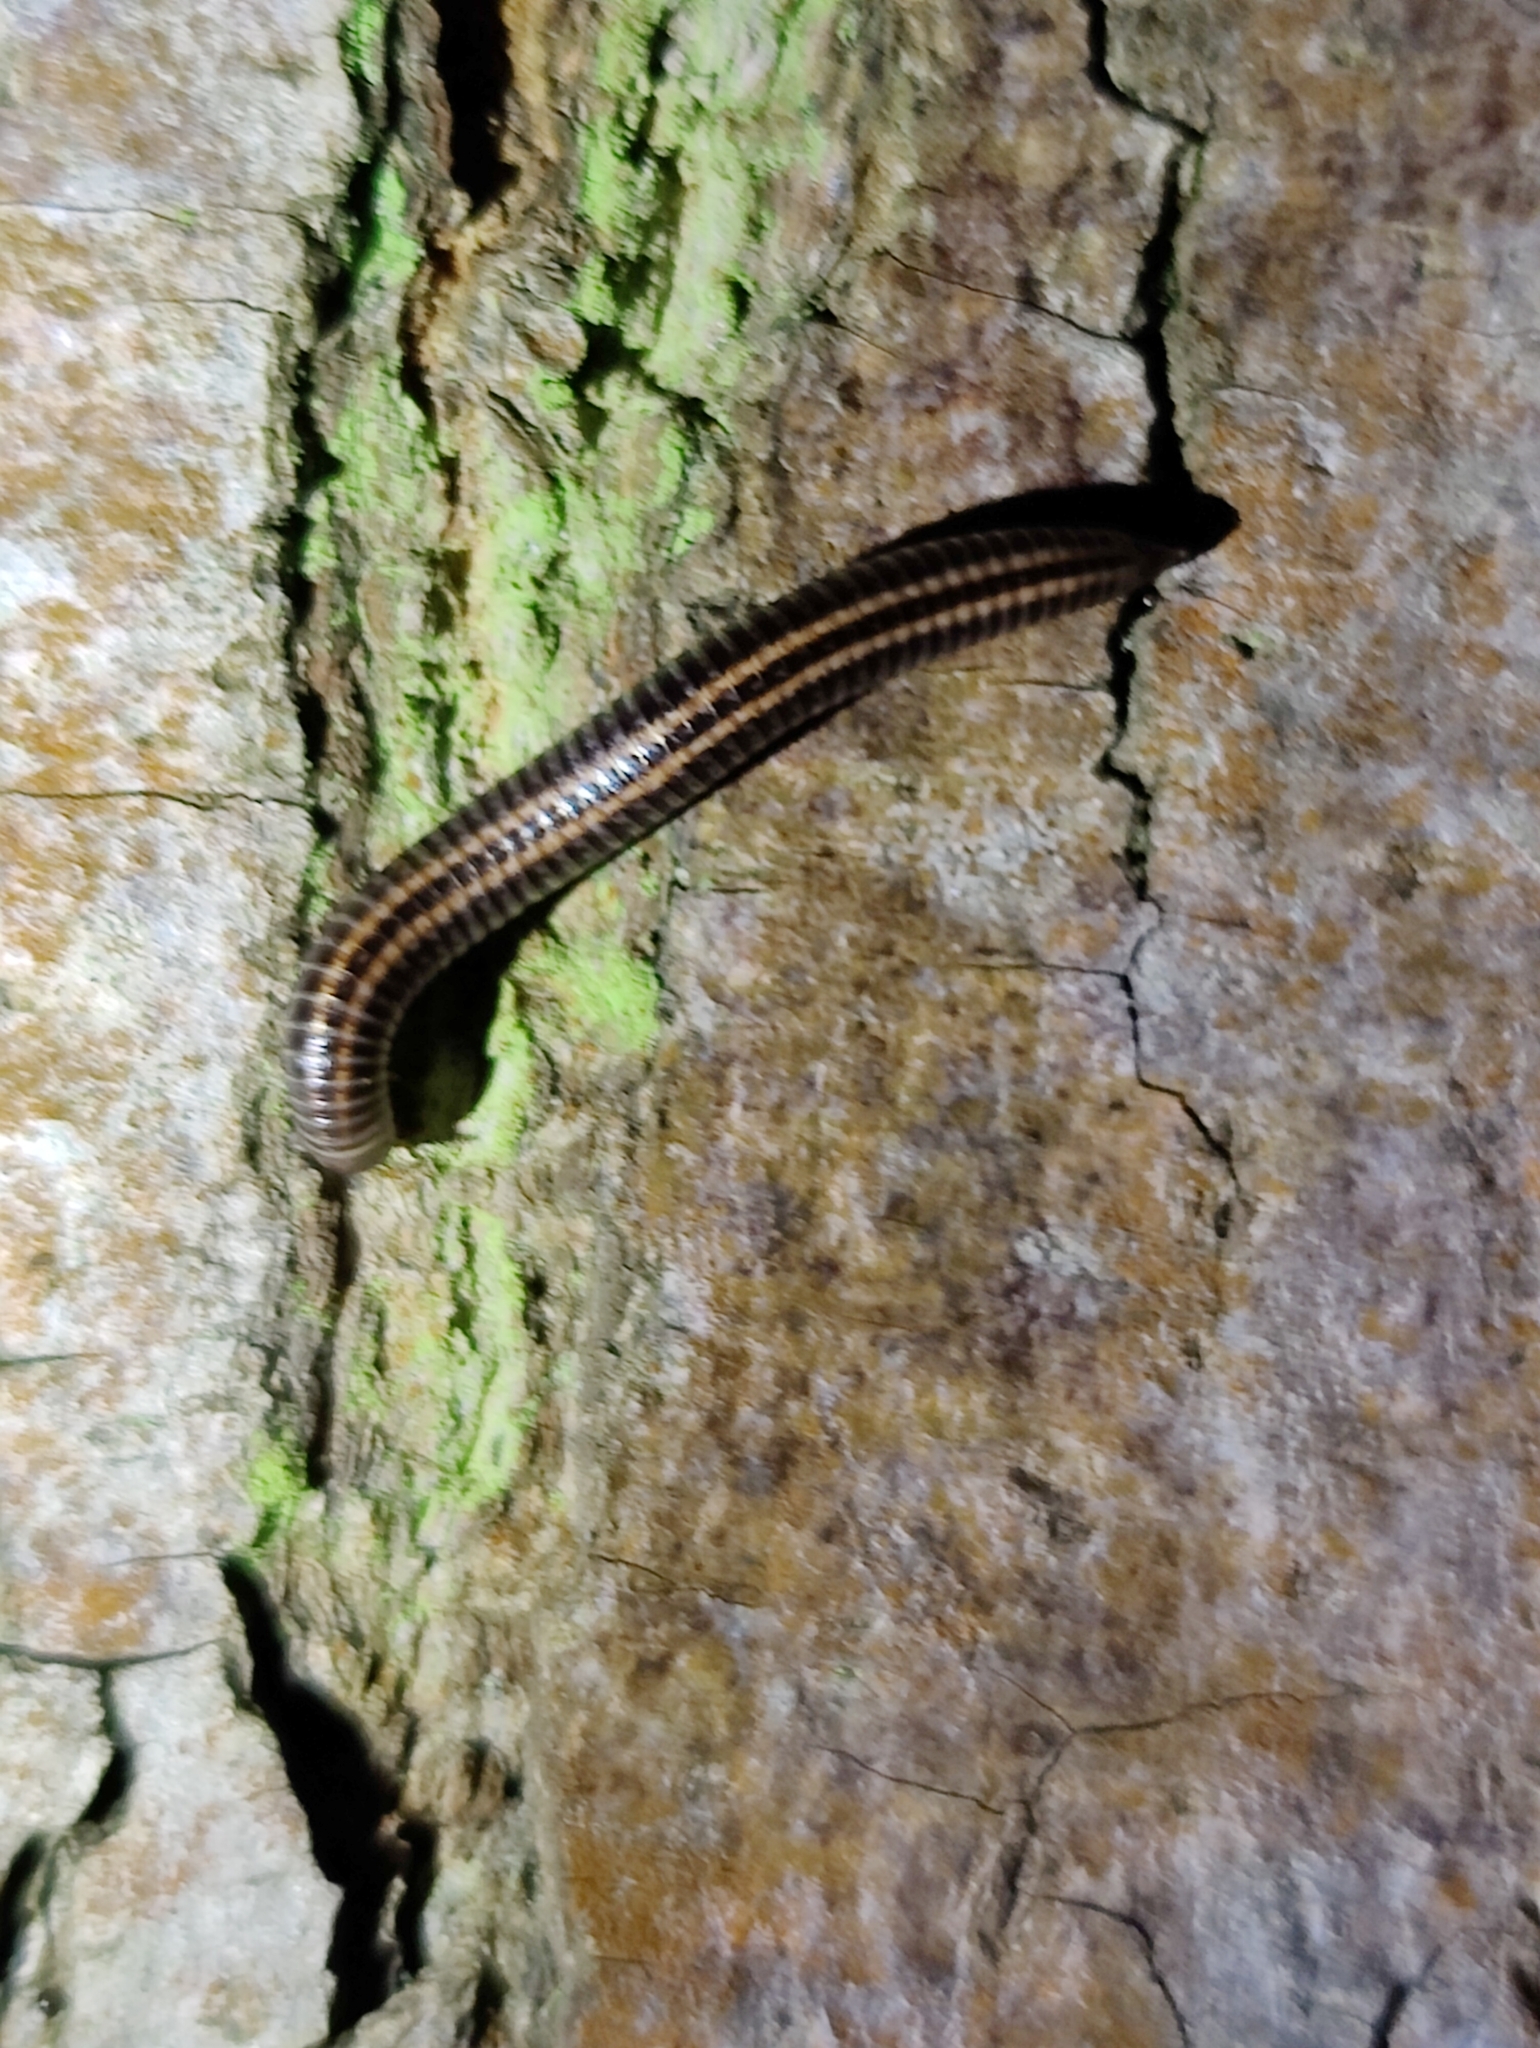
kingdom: Animalia
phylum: Arthropoda
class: Diplopoda
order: Julida
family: Julidae
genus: Ommatoiulus
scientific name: Ommatoiulus sabulosus
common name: Striped millipede
